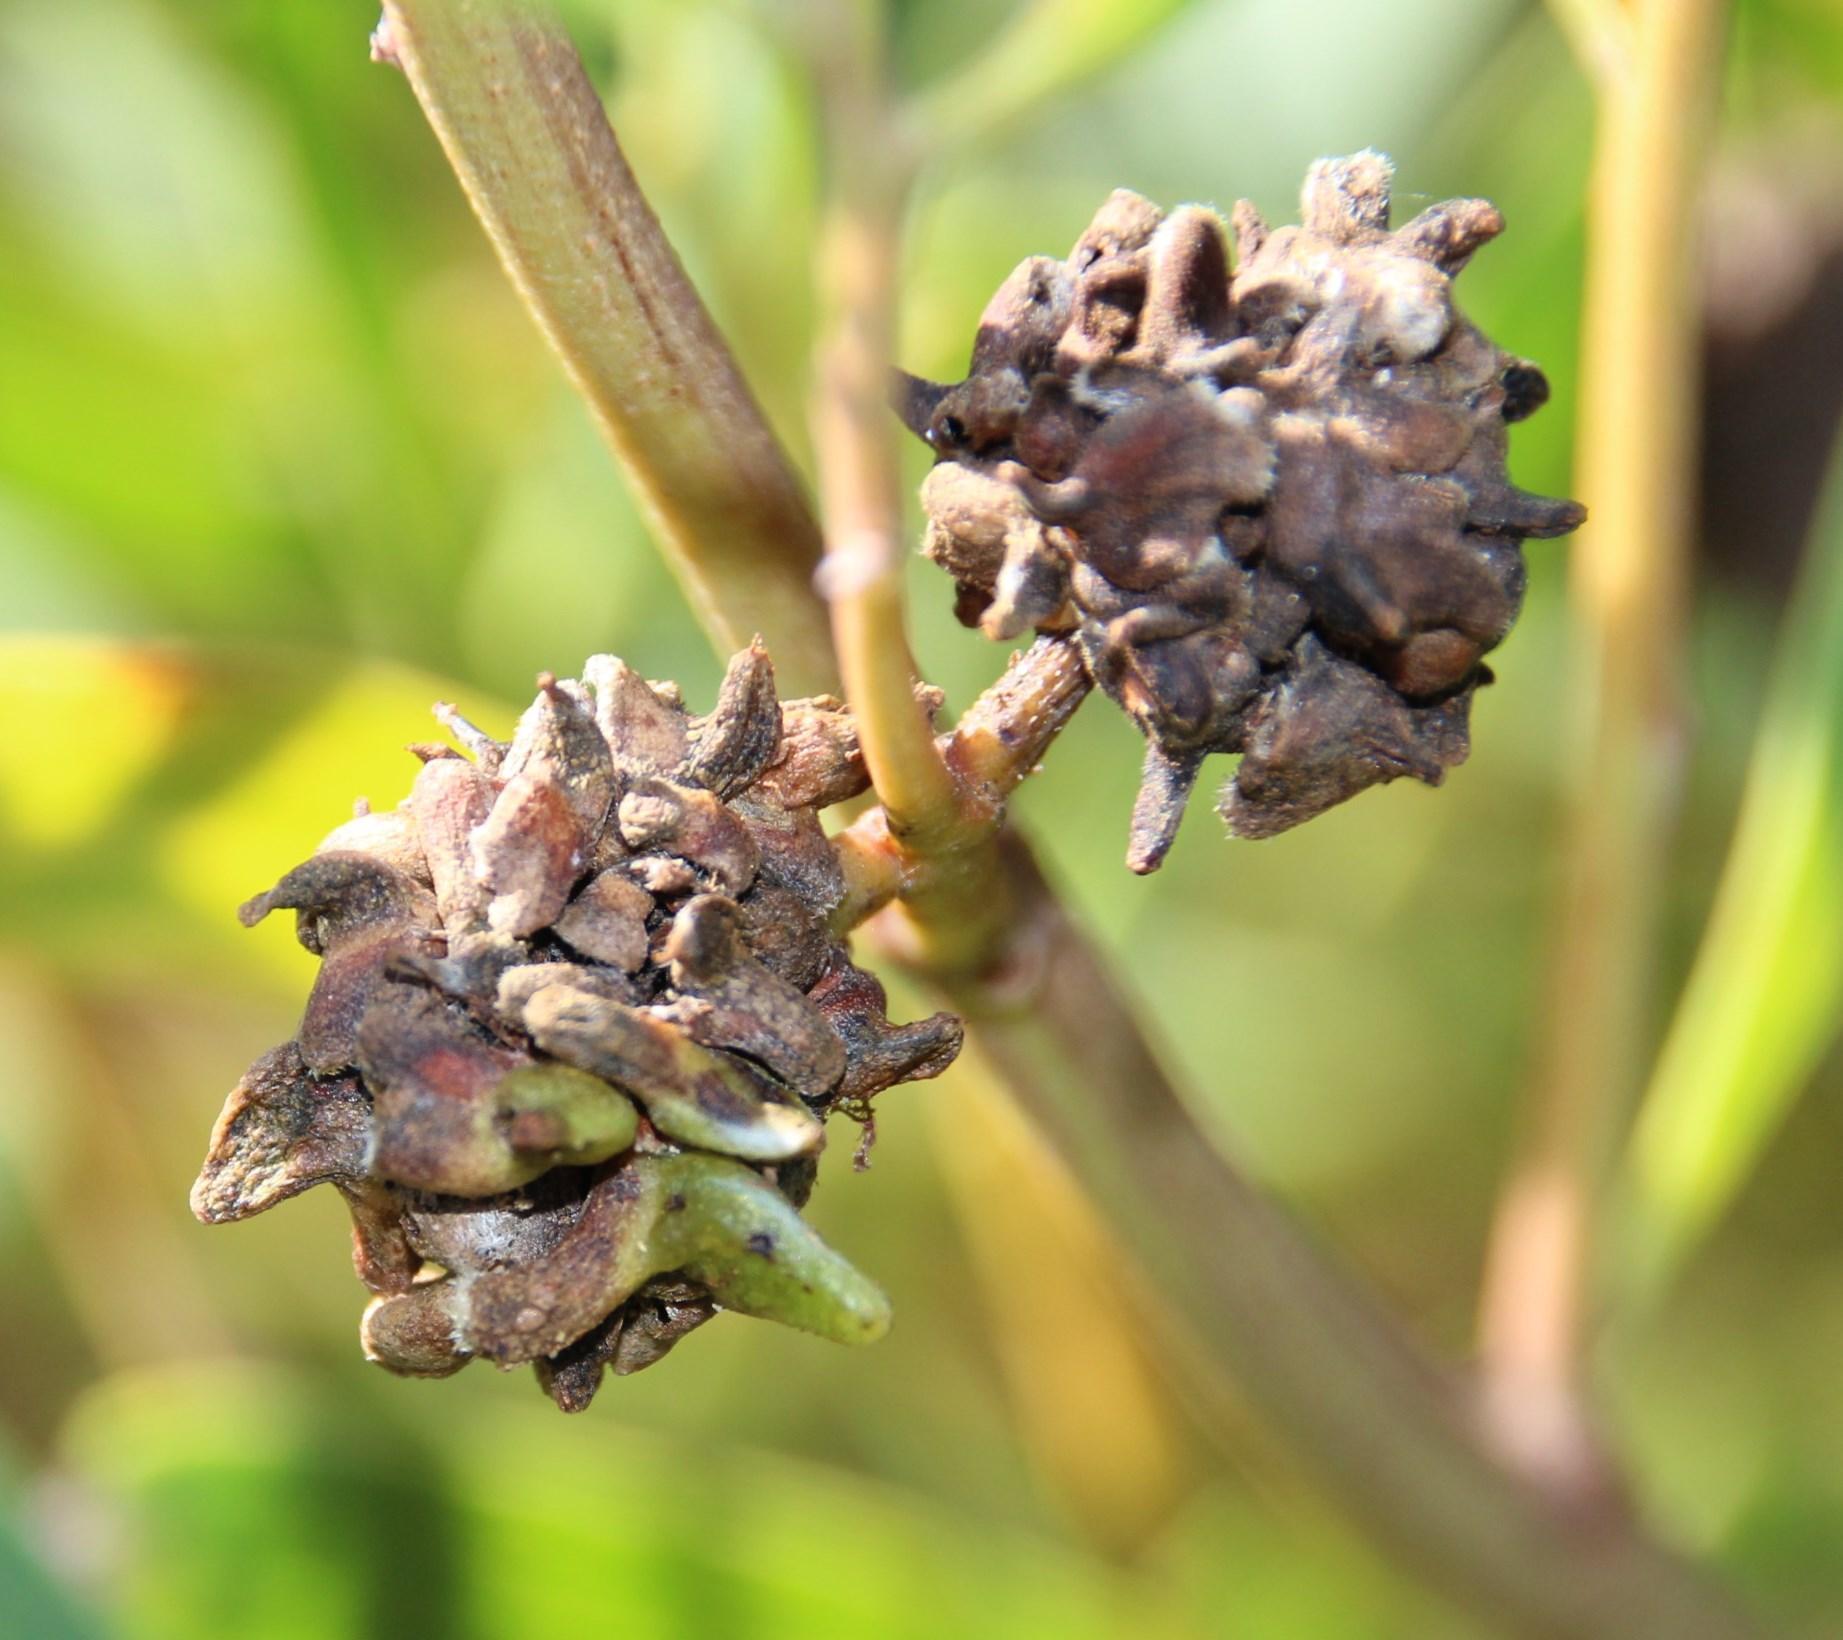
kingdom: Animalia
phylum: Arthropoda
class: Insecta
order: Diptera
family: Cecidomyiidae
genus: Dasineura
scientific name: Dasineura dielsi
